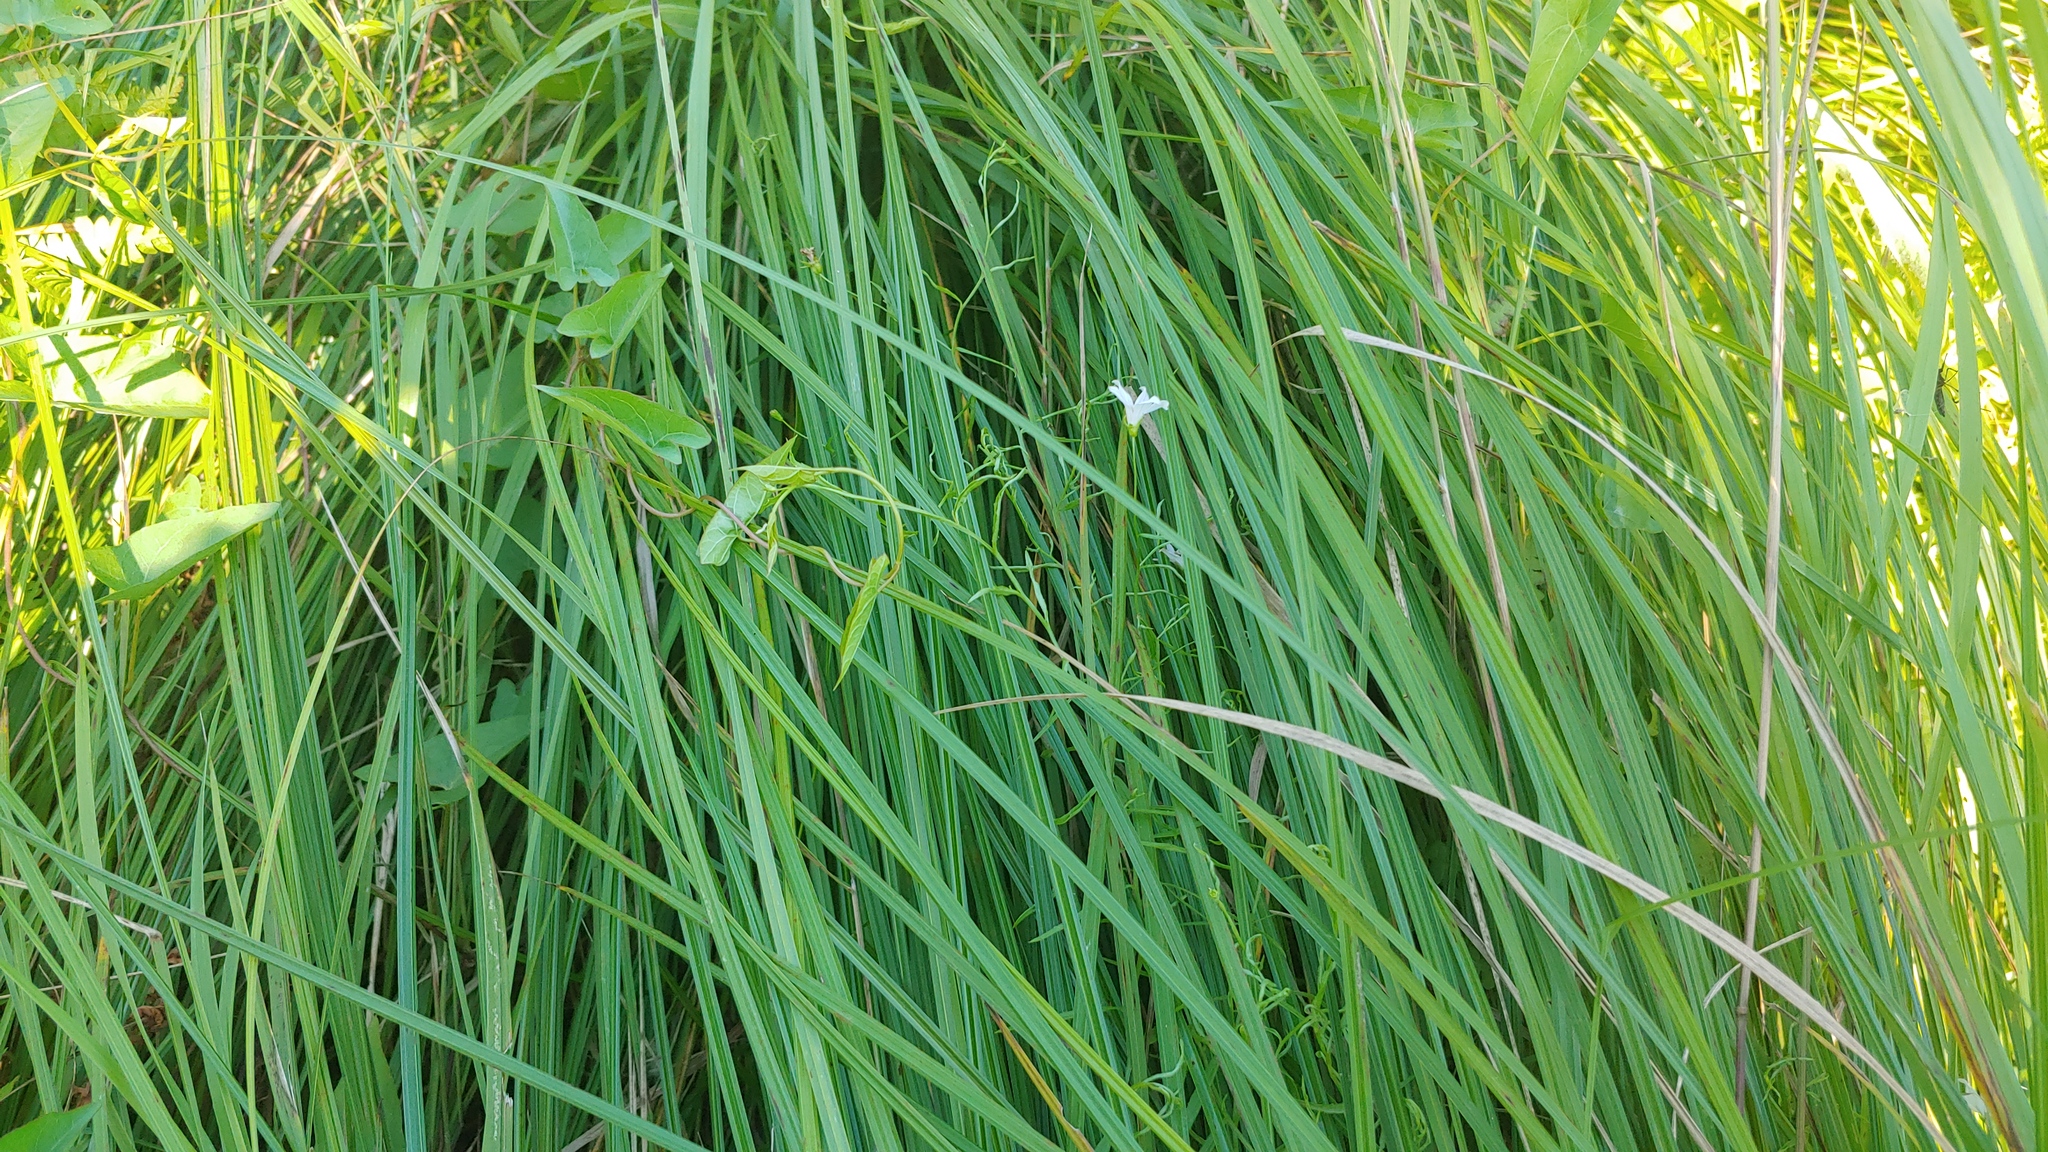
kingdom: Plantae
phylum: Tracheophyta
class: Magnoliopsida
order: Asterales
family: Campanulaceae
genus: Palustricodon
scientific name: Palustricodon aparinoides
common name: Bedstraw bellflower
